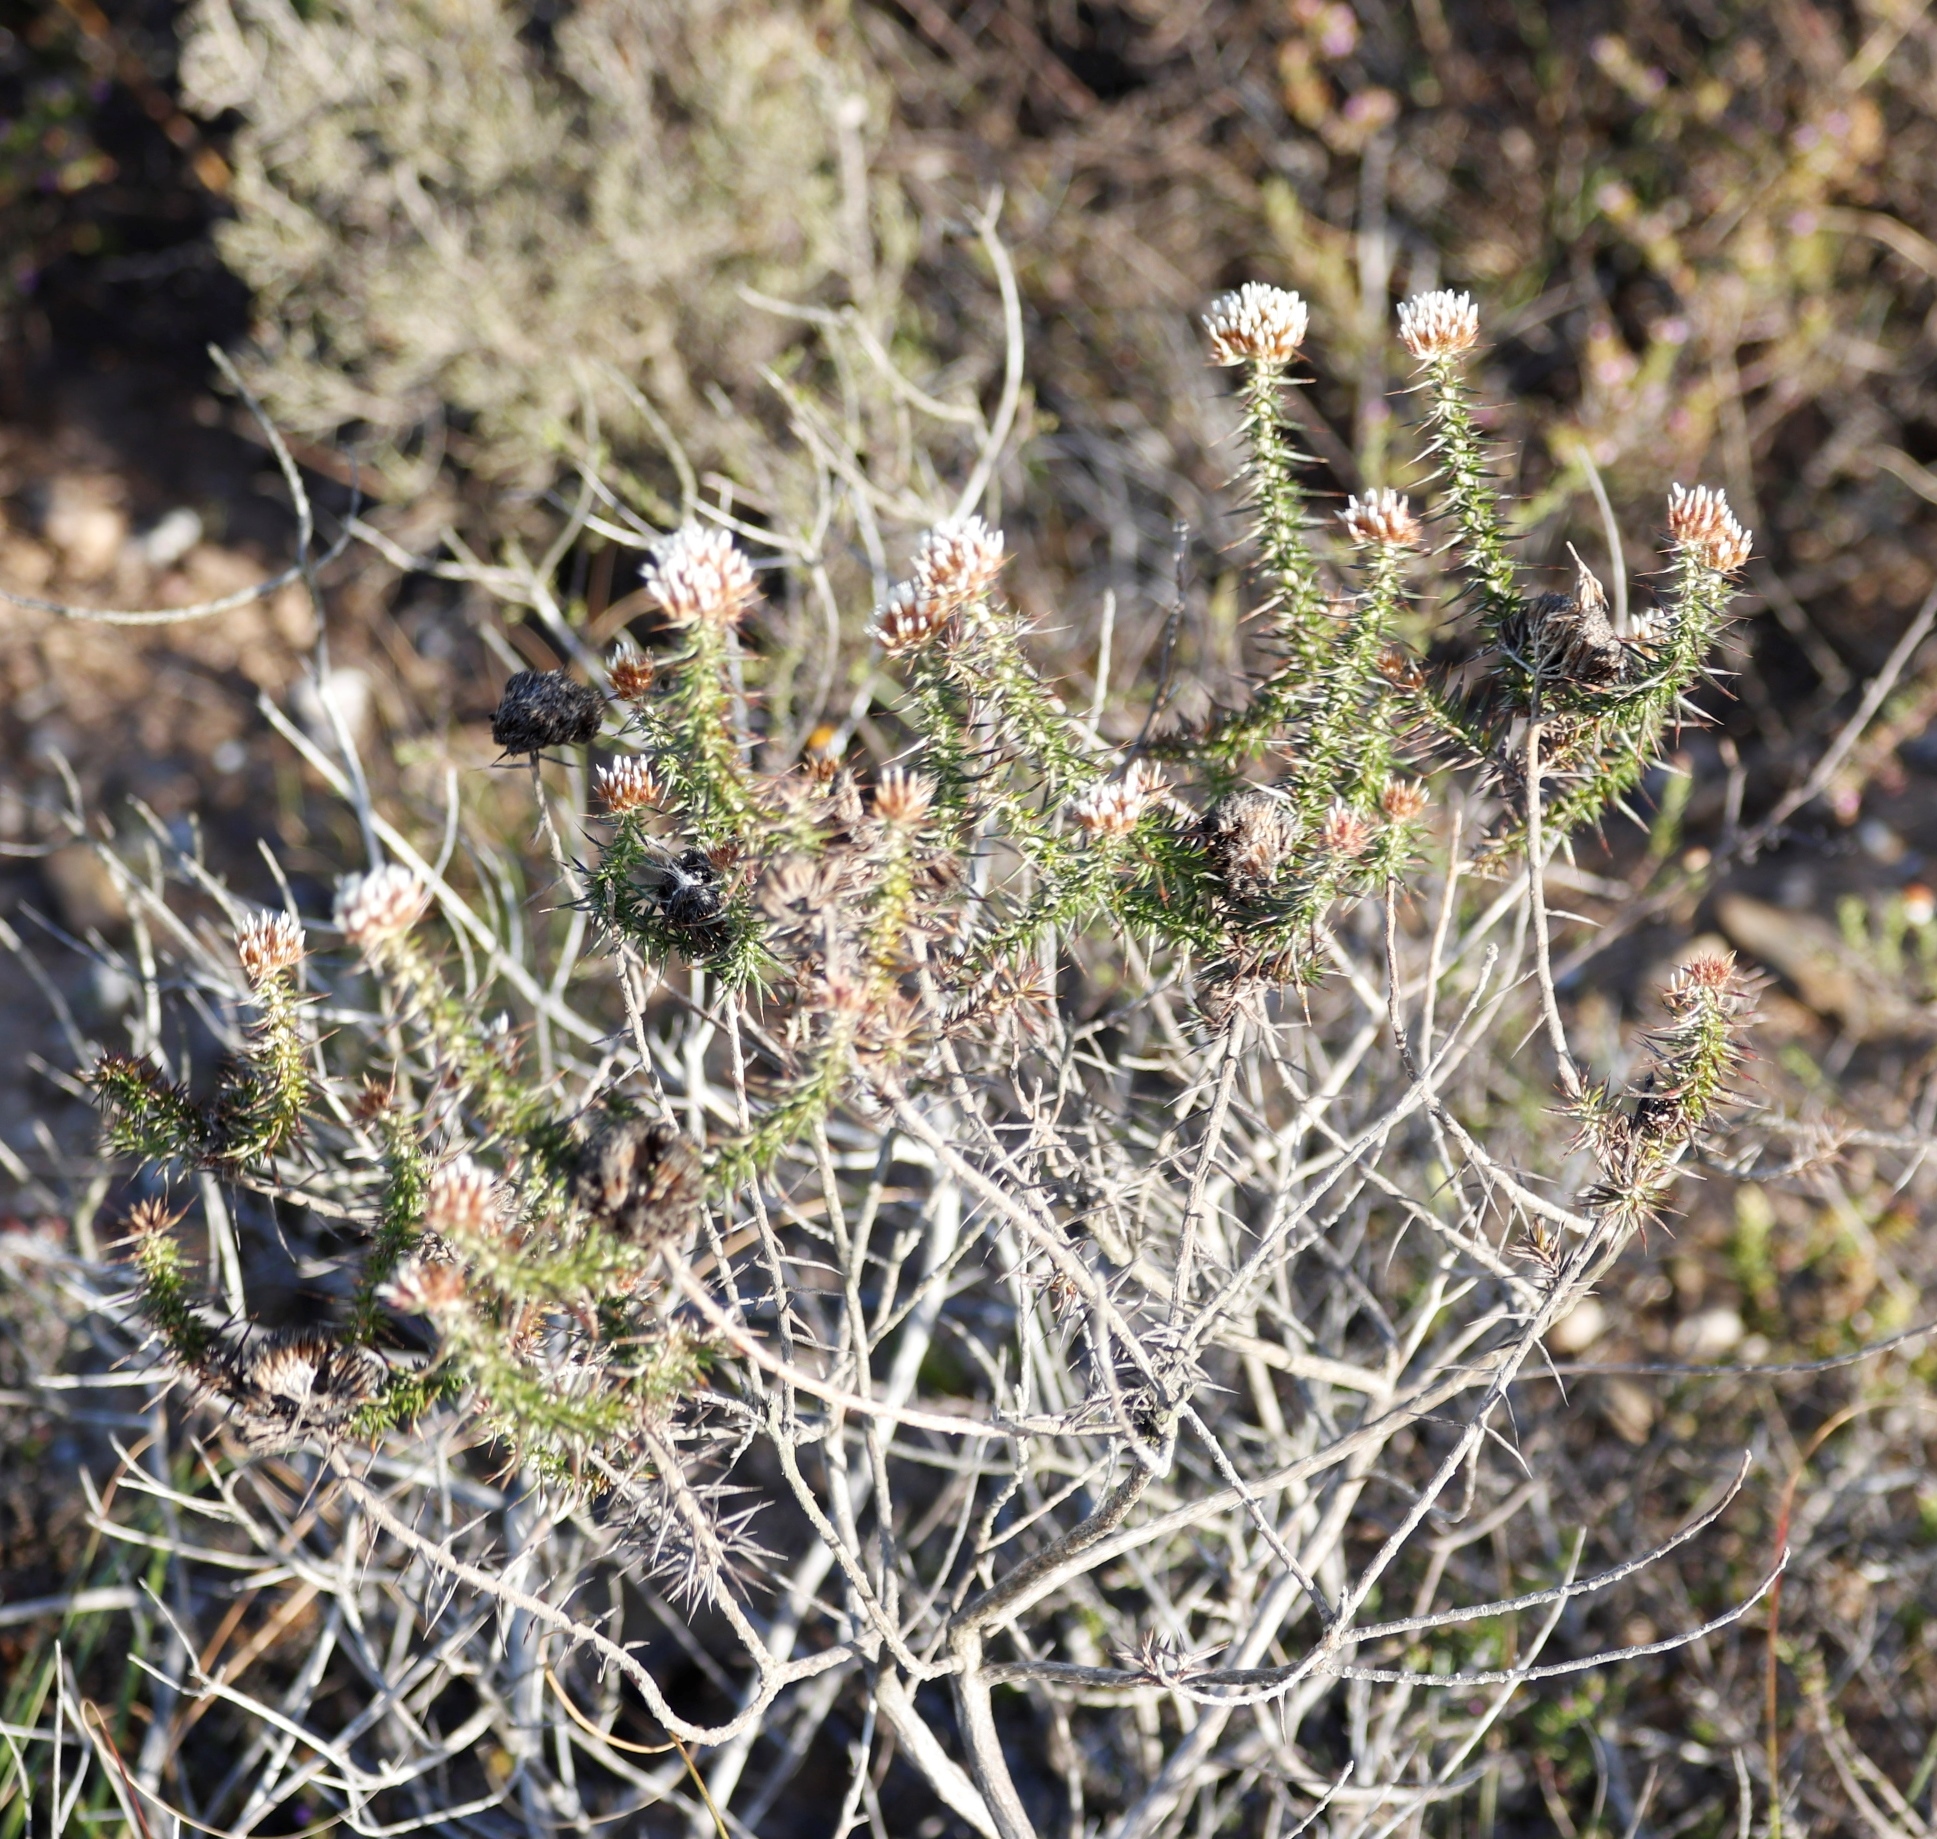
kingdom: Plantae
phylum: Tracheophyta
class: Magnoliopsida
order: Asterales
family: Asteraceae
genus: Metalasia
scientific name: Metalasia acuta
